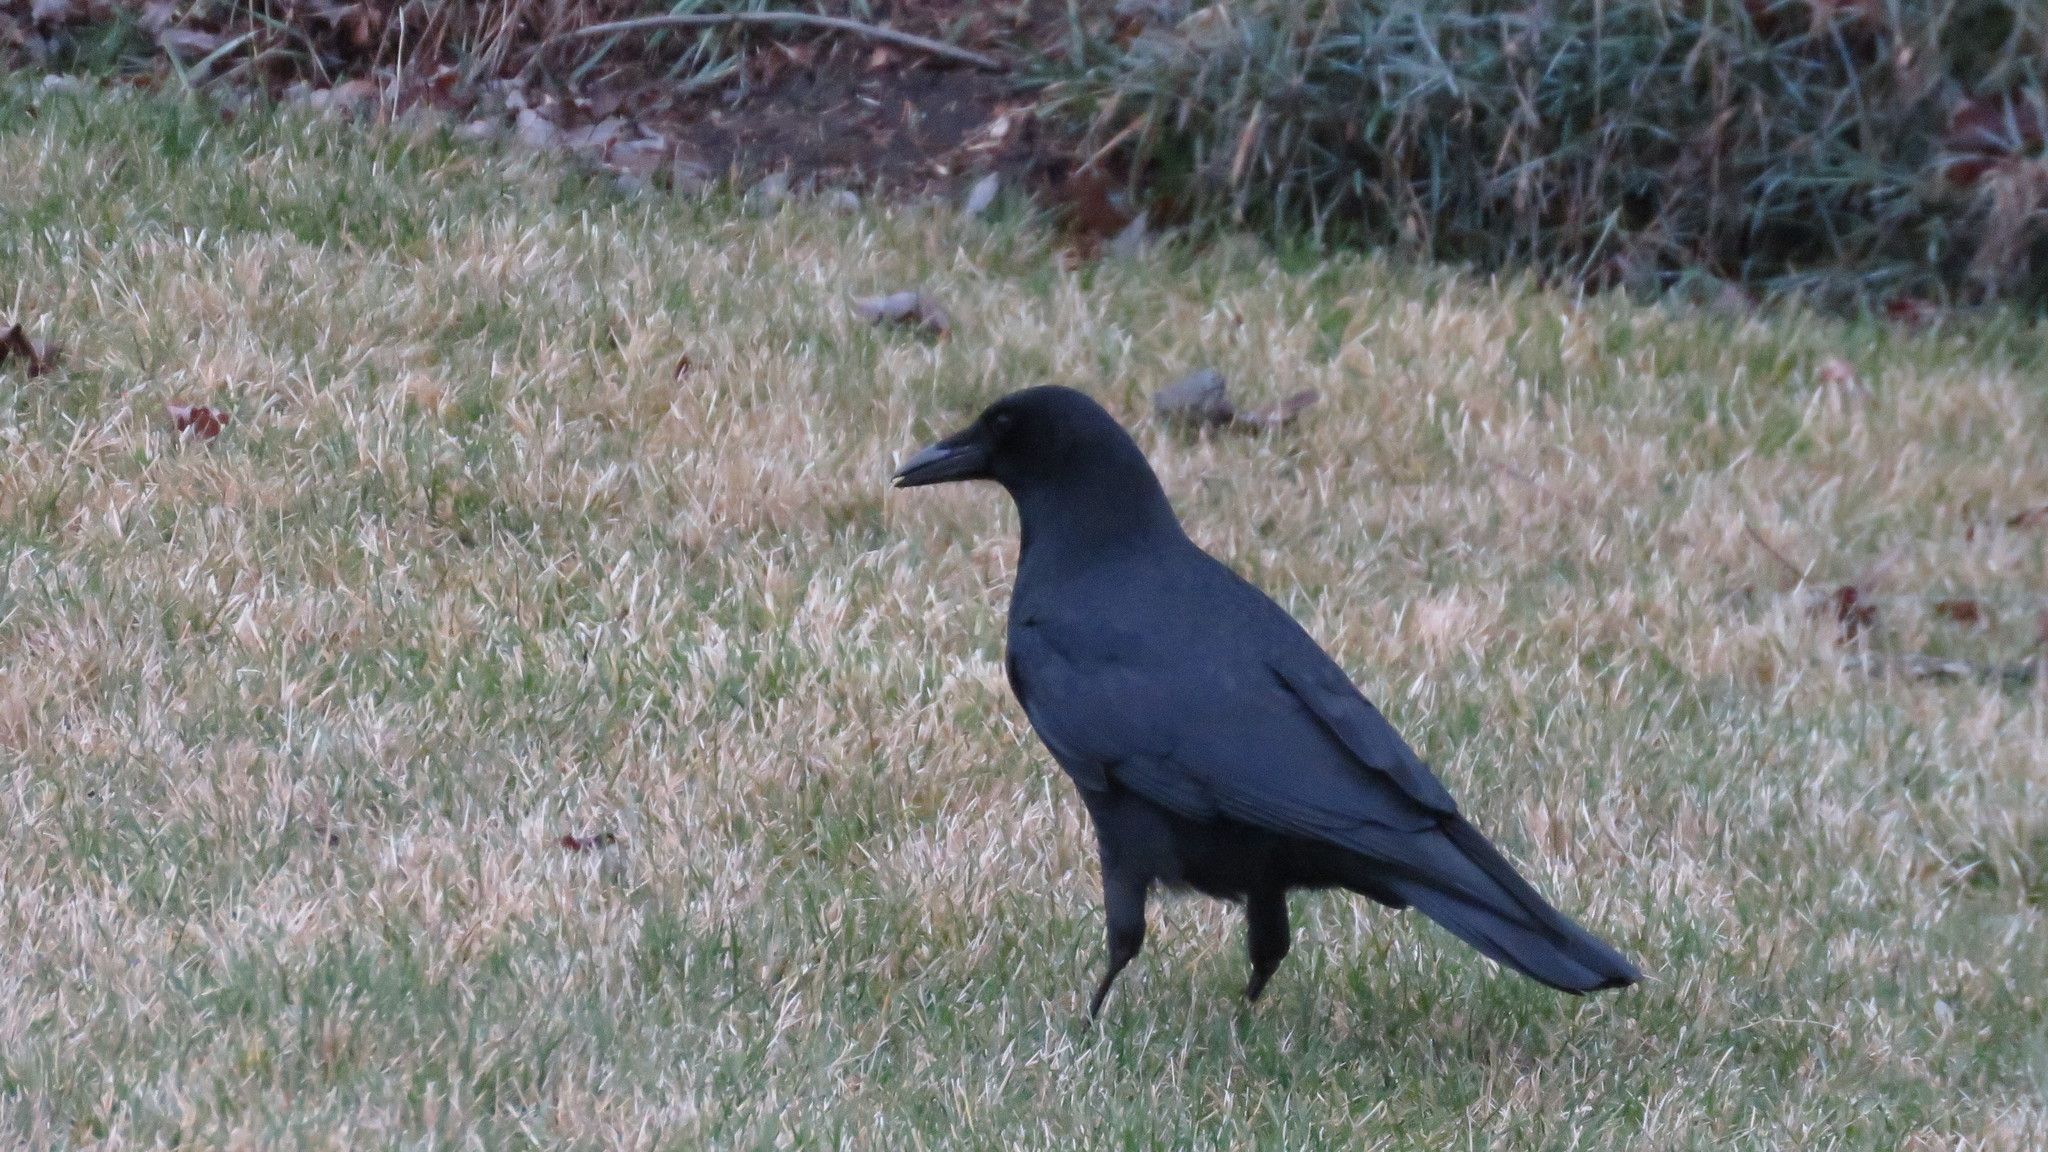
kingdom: Animalia
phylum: Chordata
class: Aves
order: Passeriformes
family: Corvidae
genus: Corvus
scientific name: Corvus brachyrhynchos
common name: American crow
